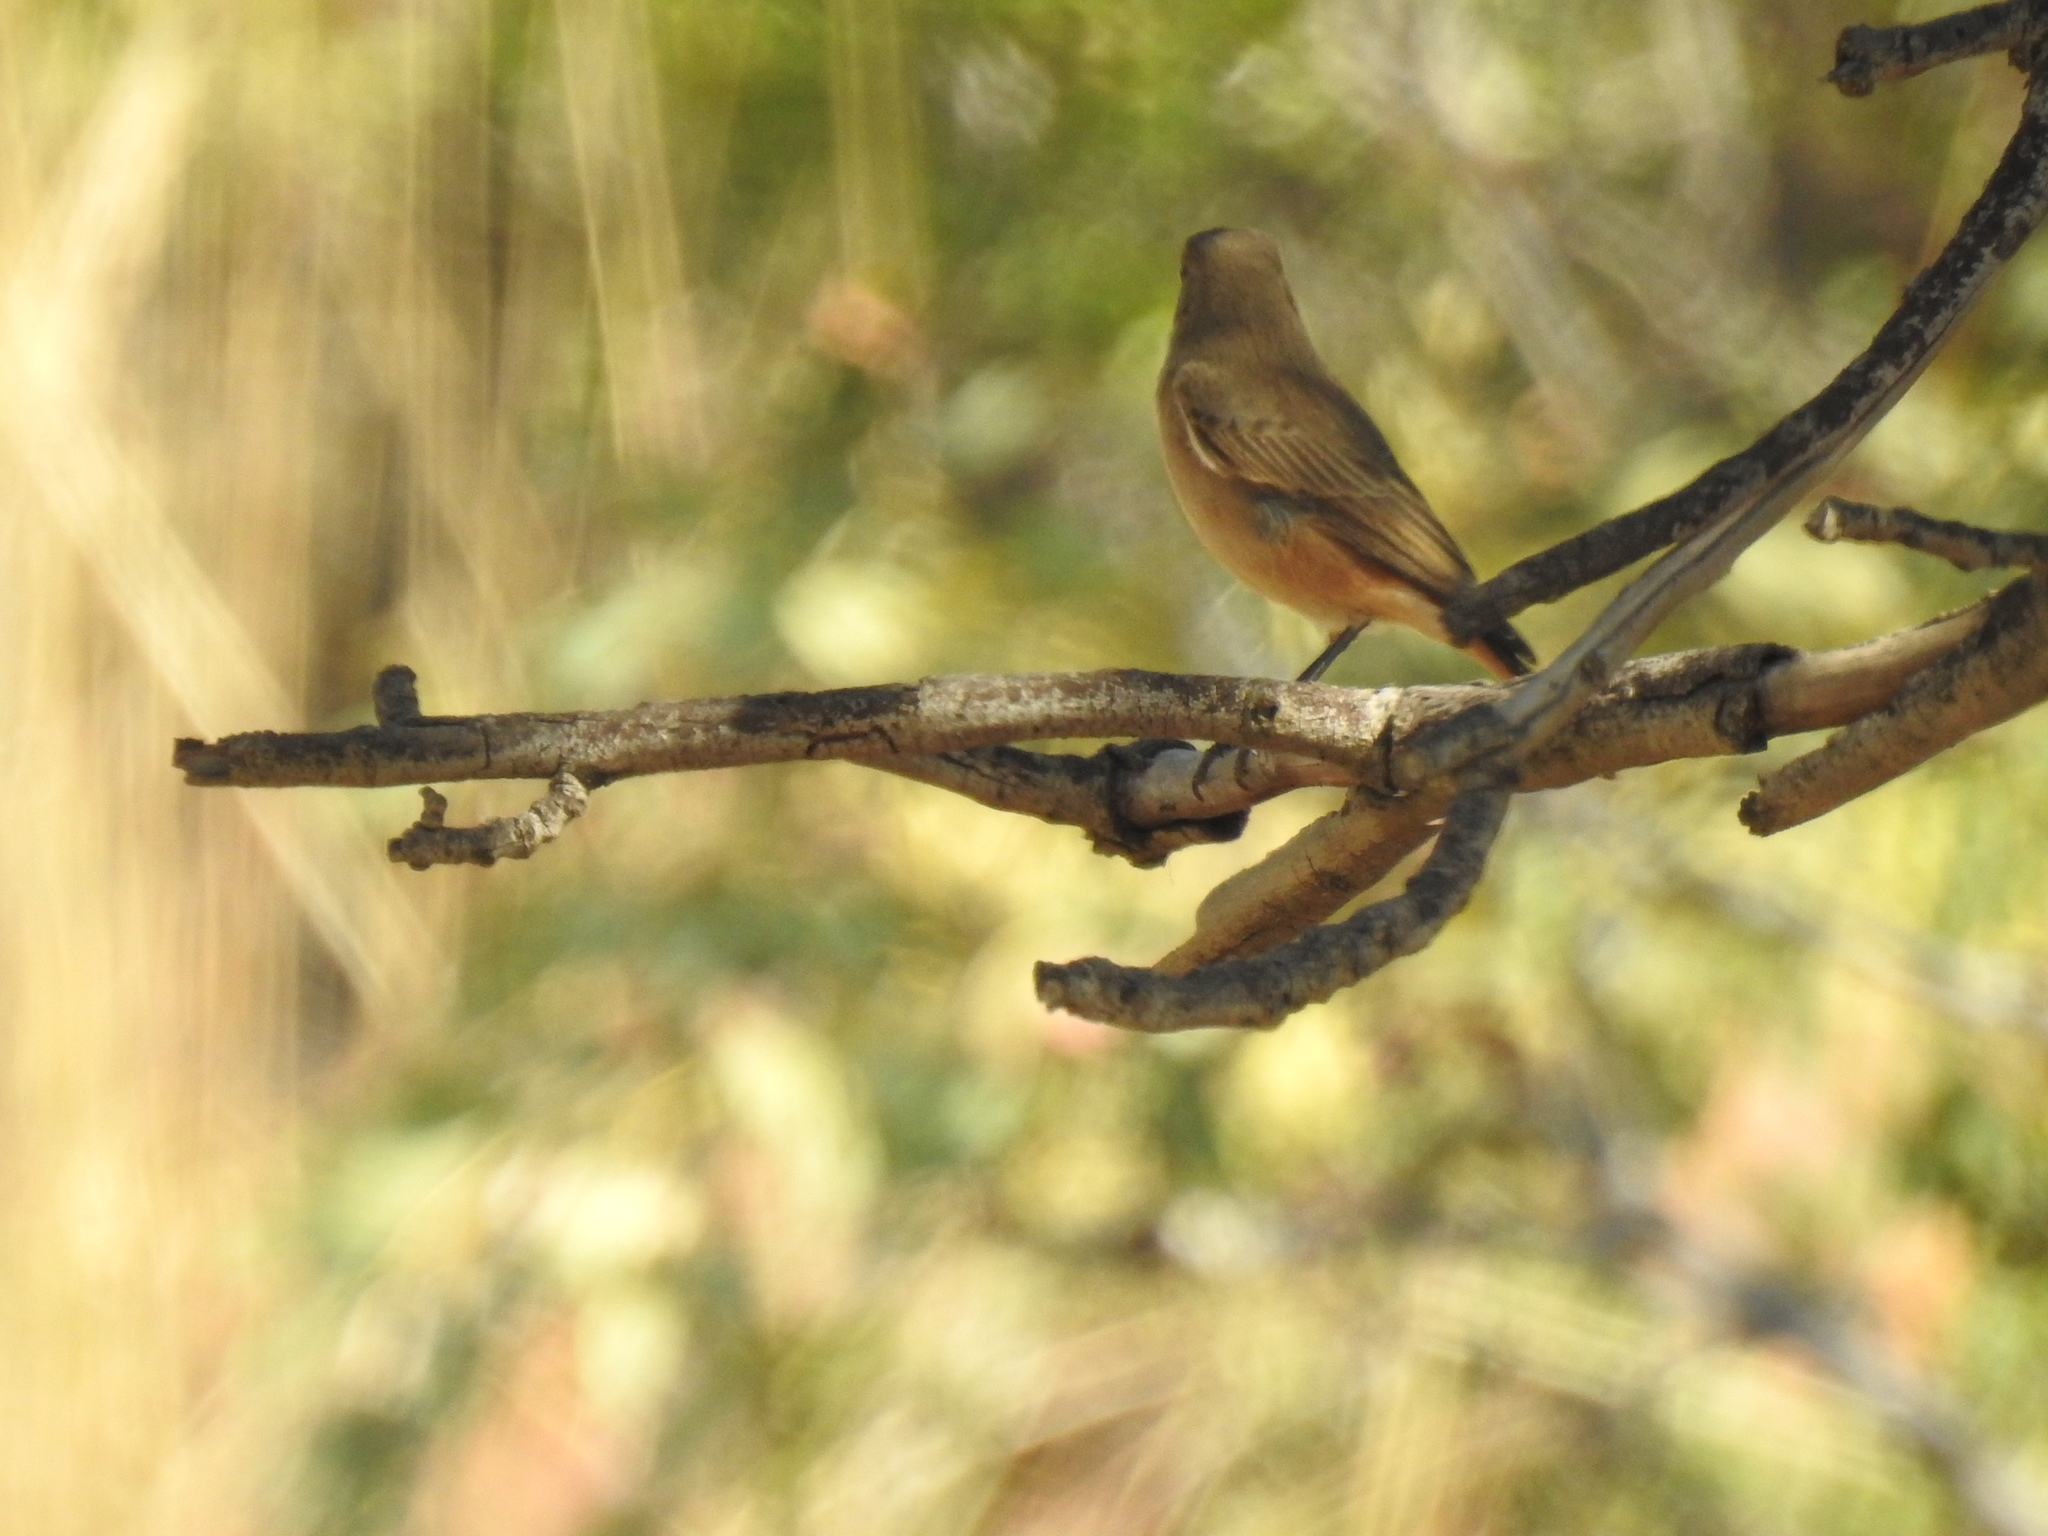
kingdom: Animalia
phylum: Chordata
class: Aves
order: Passeriformes
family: Muscicapidae
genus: Oenanthe
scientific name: Oenanthe familiaris
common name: Familiar chat
